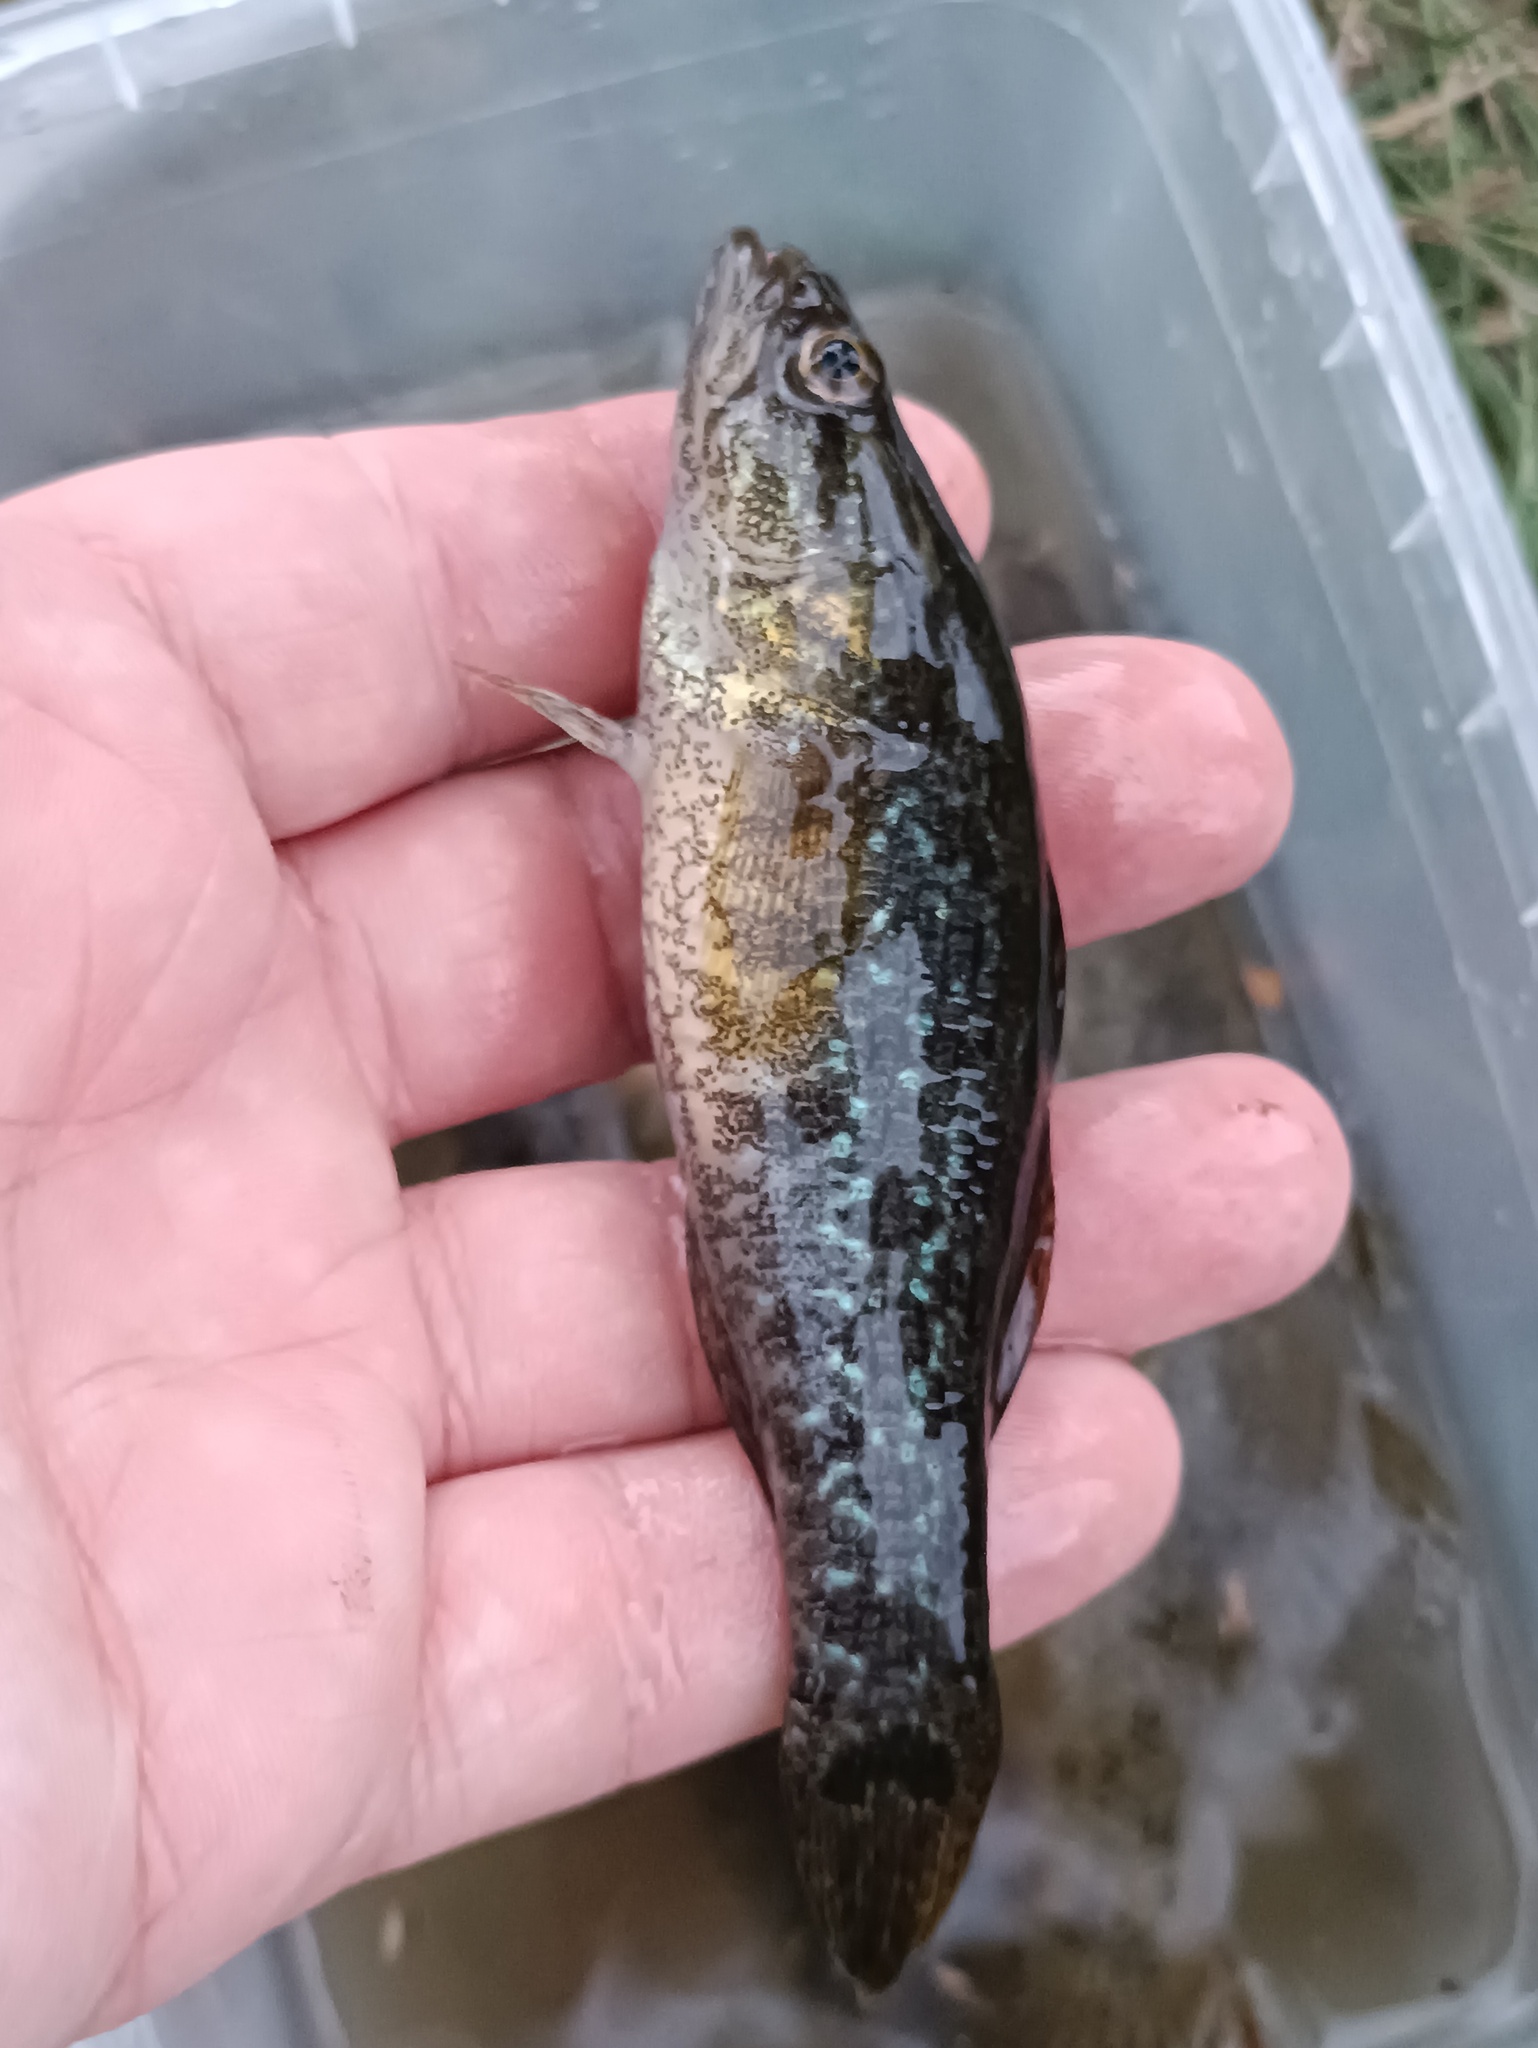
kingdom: Animalia
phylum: Chordata
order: Perciformes
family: Odontobutidae
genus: Perccottus
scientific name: Perccottus glenii
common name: Amur sleeper
